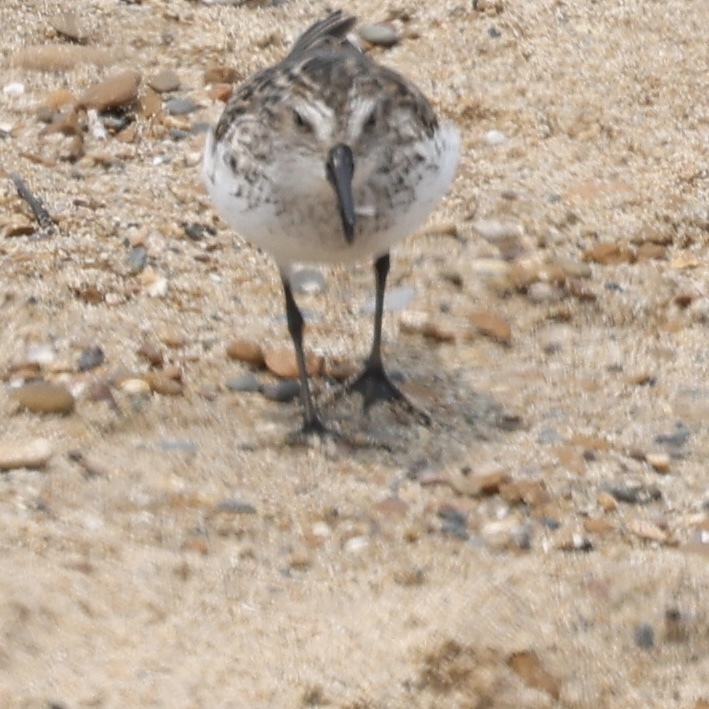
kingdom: Animalia
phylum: Chordata
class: Aves
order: Charadriiformes
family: Scolopacidae
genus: Calidris
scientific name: Calidris pusilla
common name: Semipalmated sandpiper
